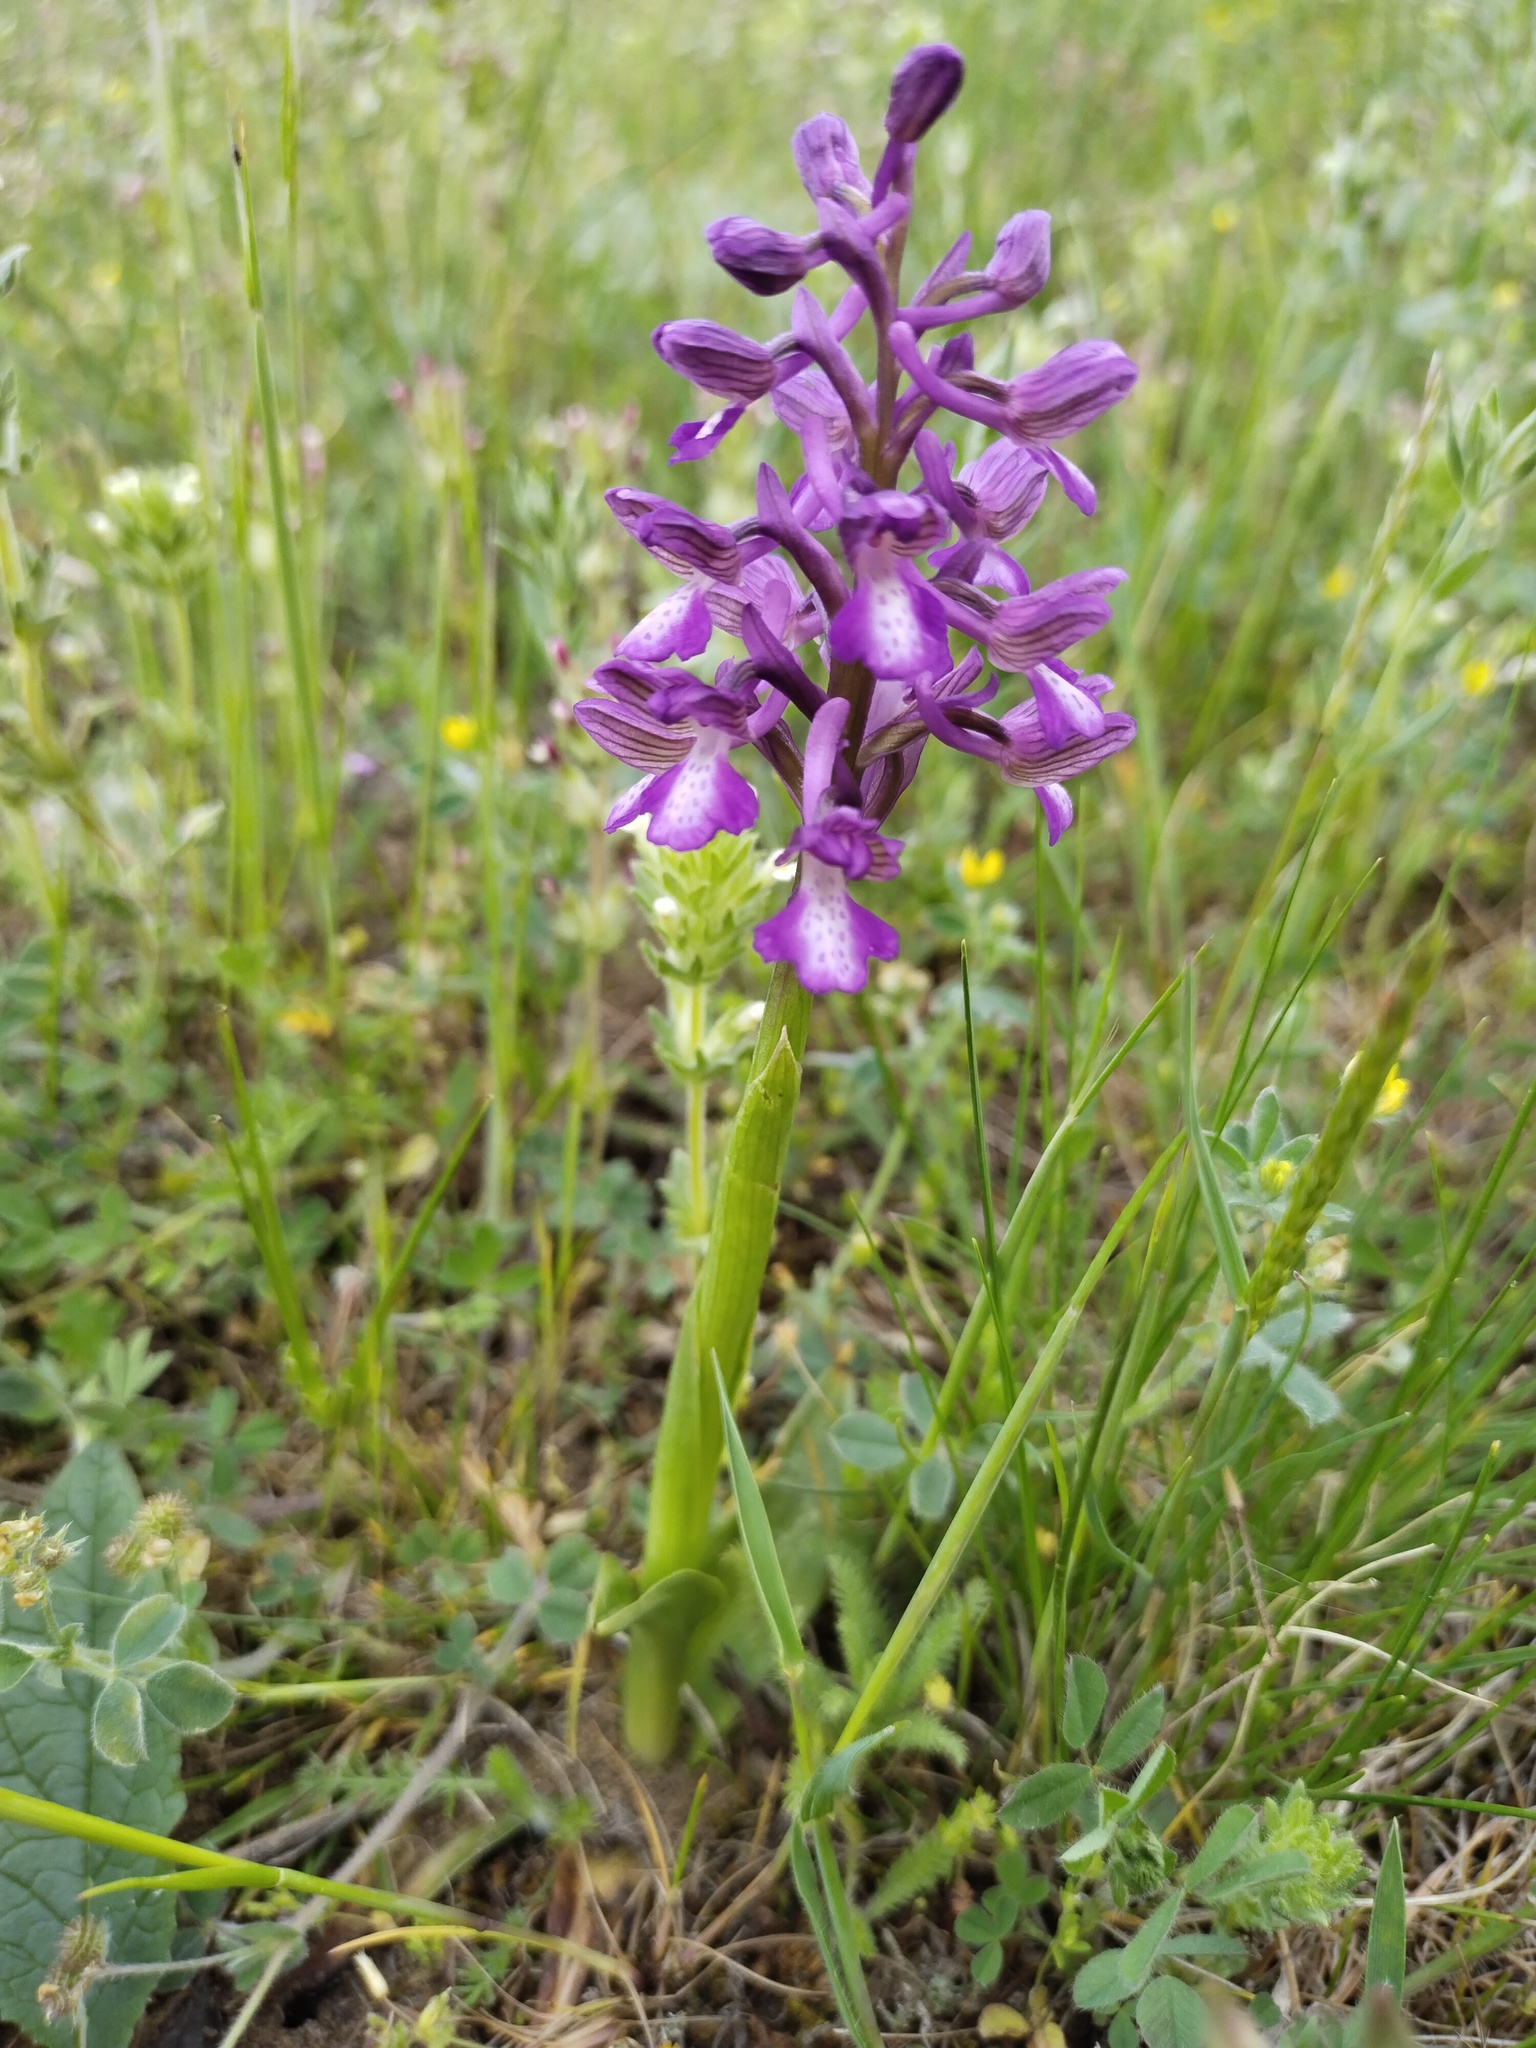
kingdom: Plantae
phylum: Tracheophyta
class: Liliopsida
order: Asparagales
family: Orchidaceae
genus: Anacamptis
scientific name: Anacamptis morio
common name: Green-winged orchid
